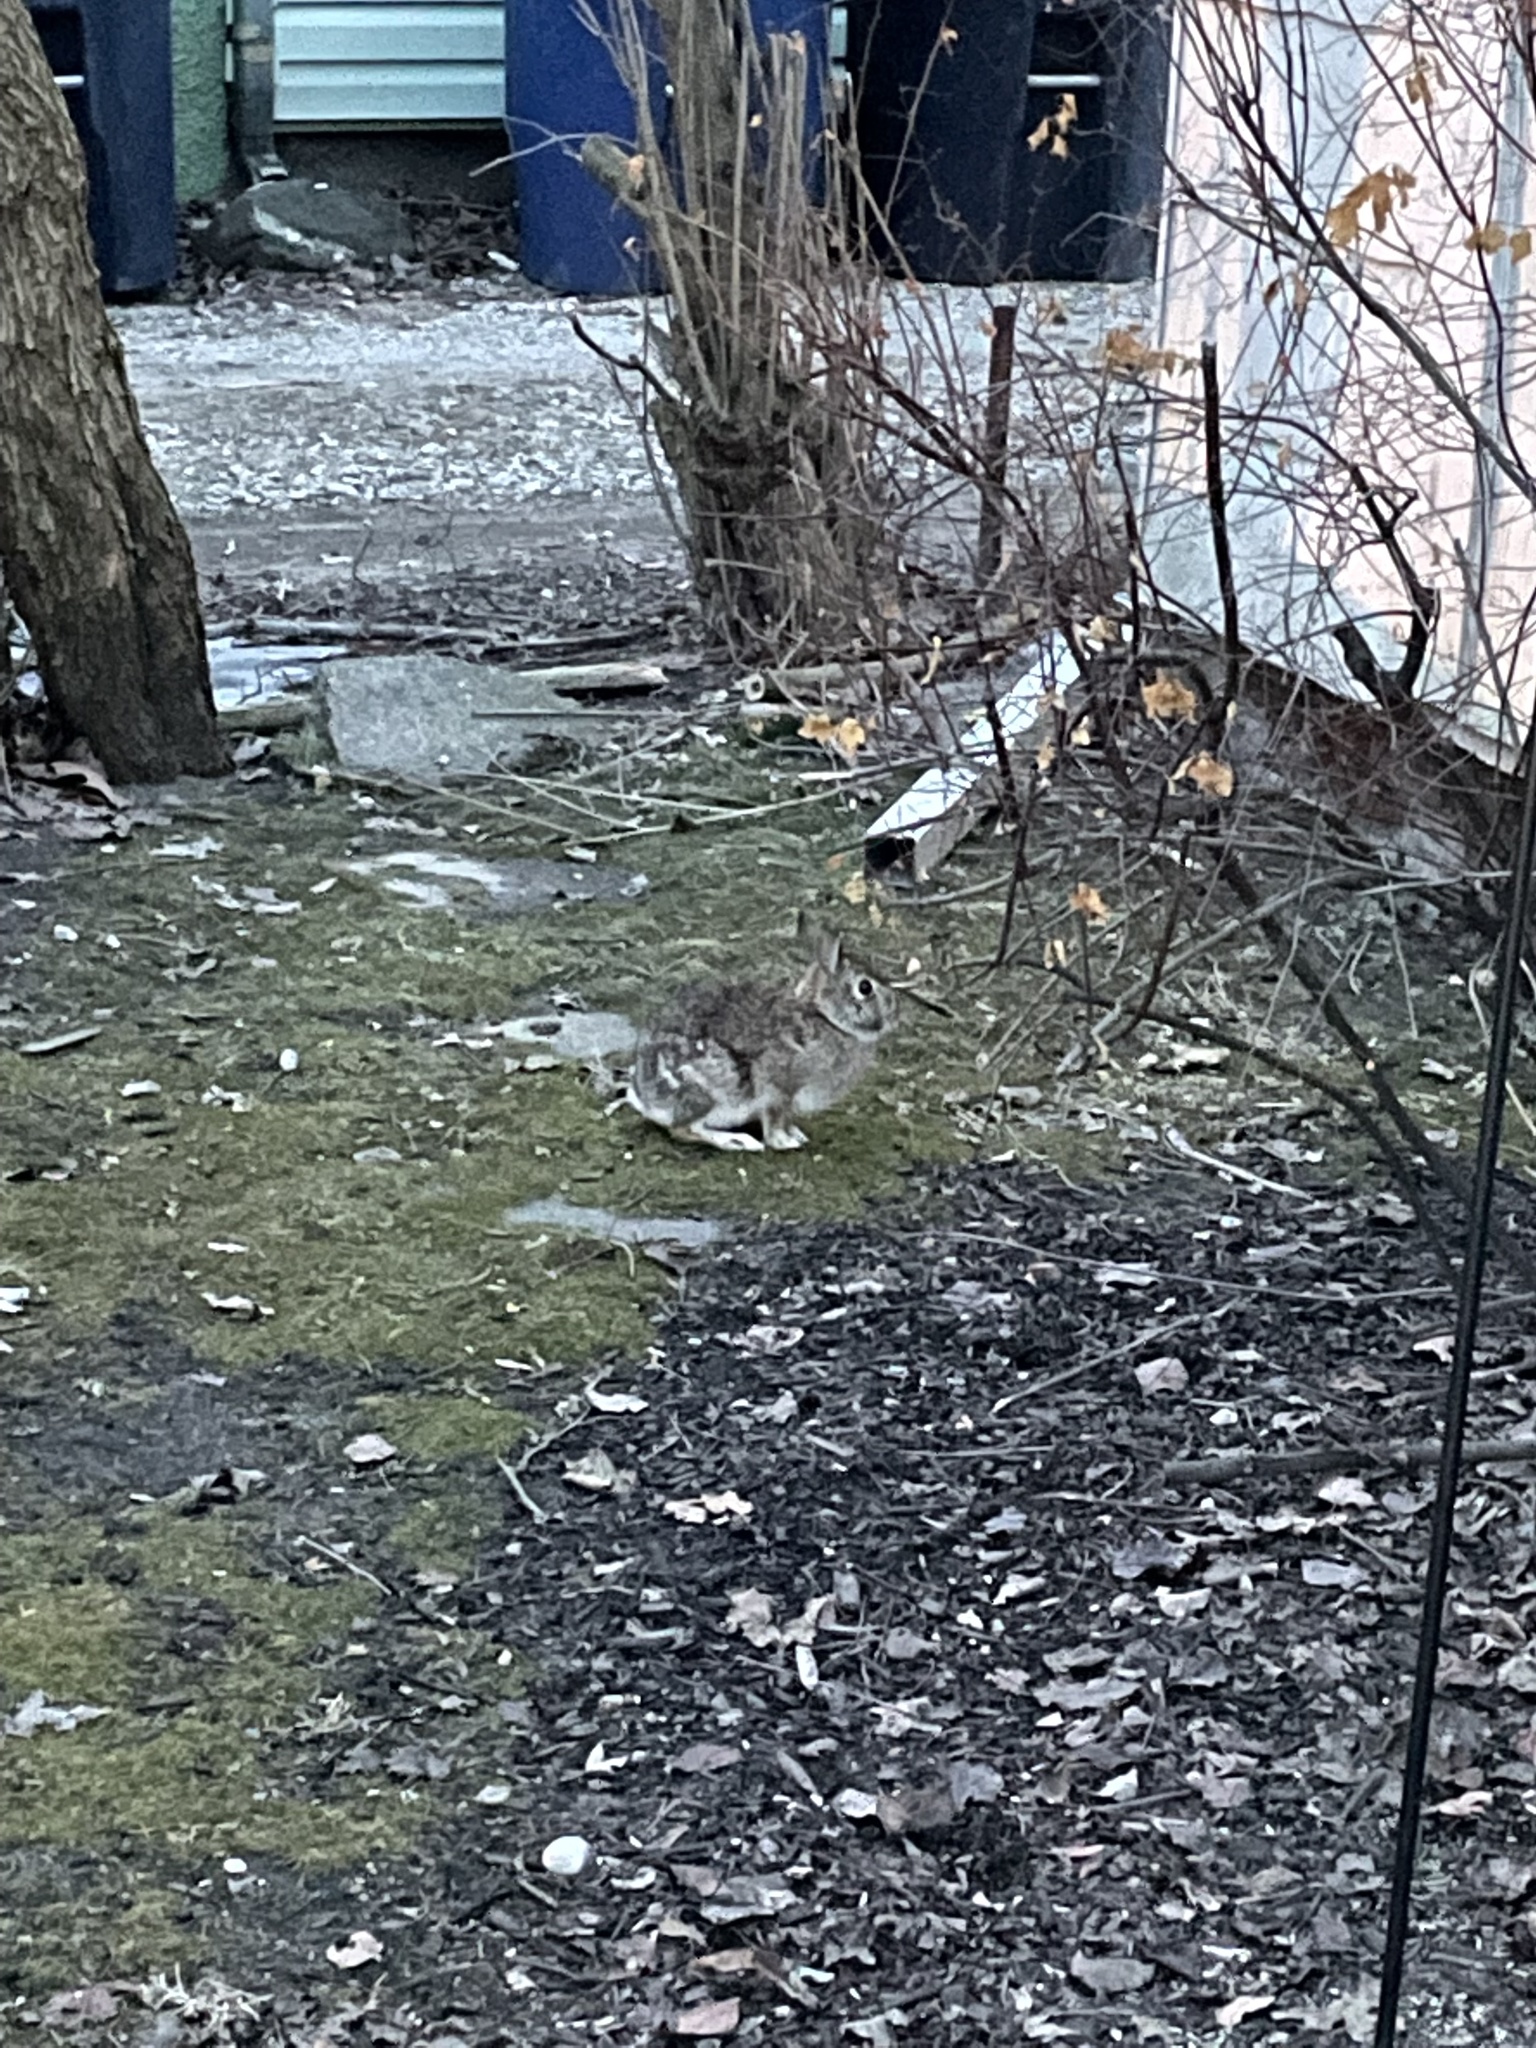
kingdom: Animalia
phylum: Chordata
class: Mammalia
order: Lagomorpha
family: Leporidae
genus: Sylvilagus
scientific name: Sylvilagus floridanus
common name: Eastern cottontail
